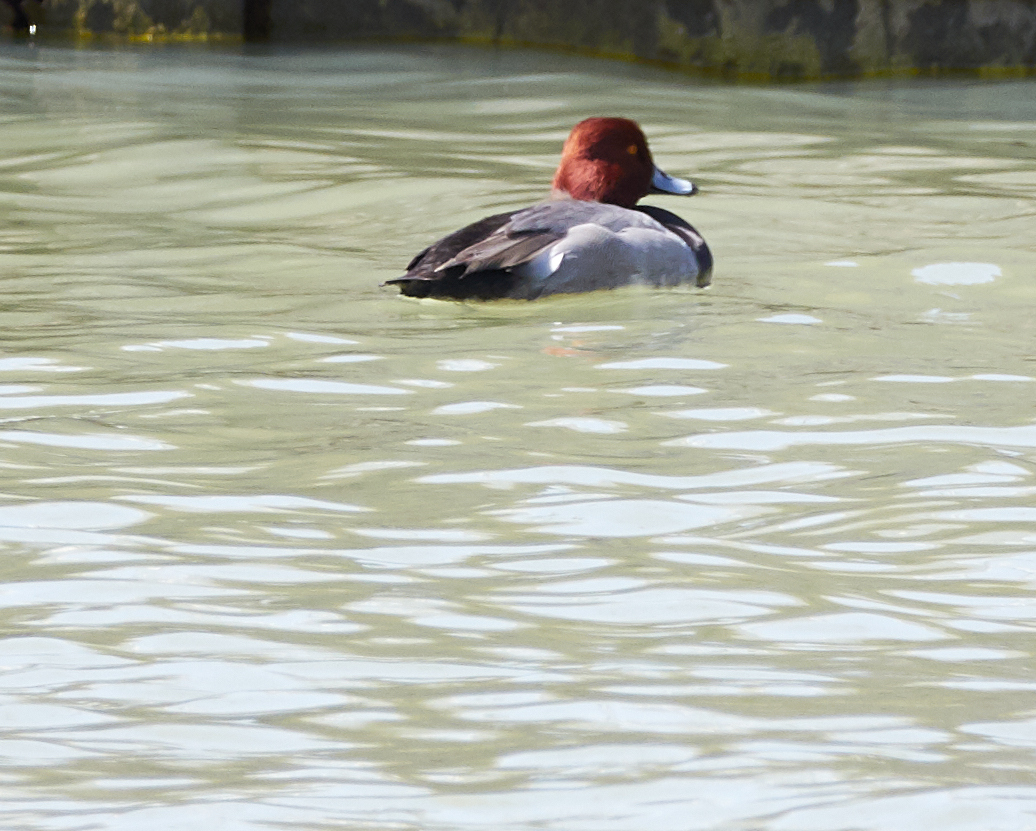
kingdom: Animalia
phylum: Chordata
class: Aves
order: Anseriformes
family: Anatidae
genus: Aythya
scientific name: Aythya americana
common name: Redhead
